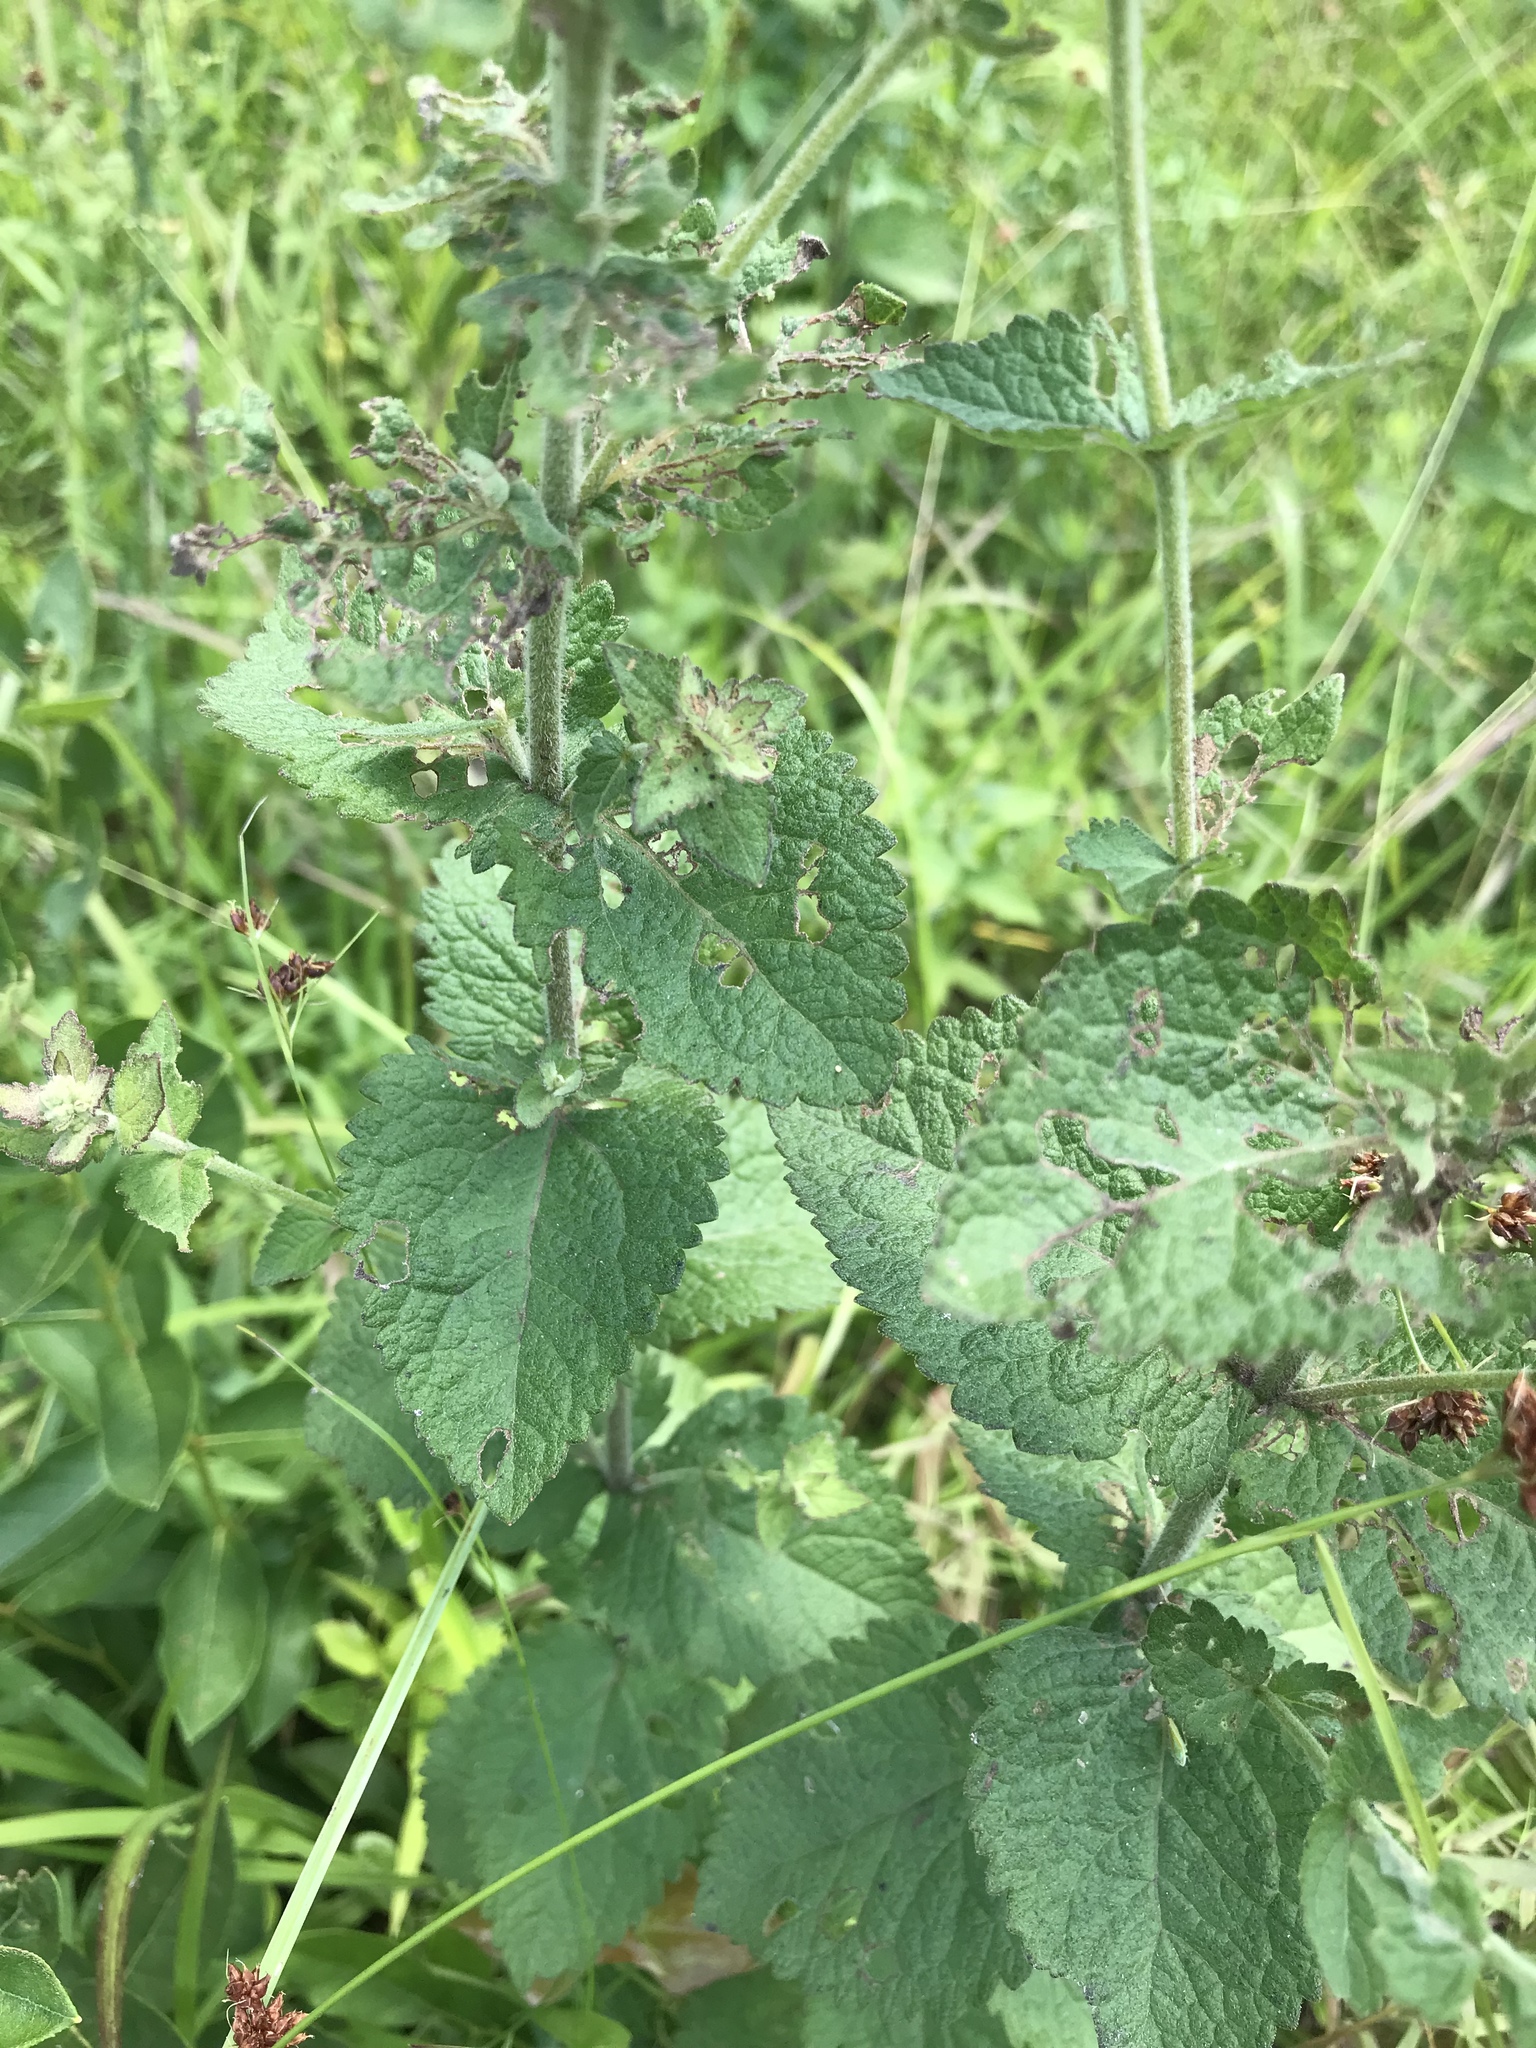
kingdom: Plantae
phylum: Tracheophyta
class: Magnoliopsida
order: Asterales
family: Asteraceae
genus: Eupatorium
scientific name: Eupatorium rotundifolium
